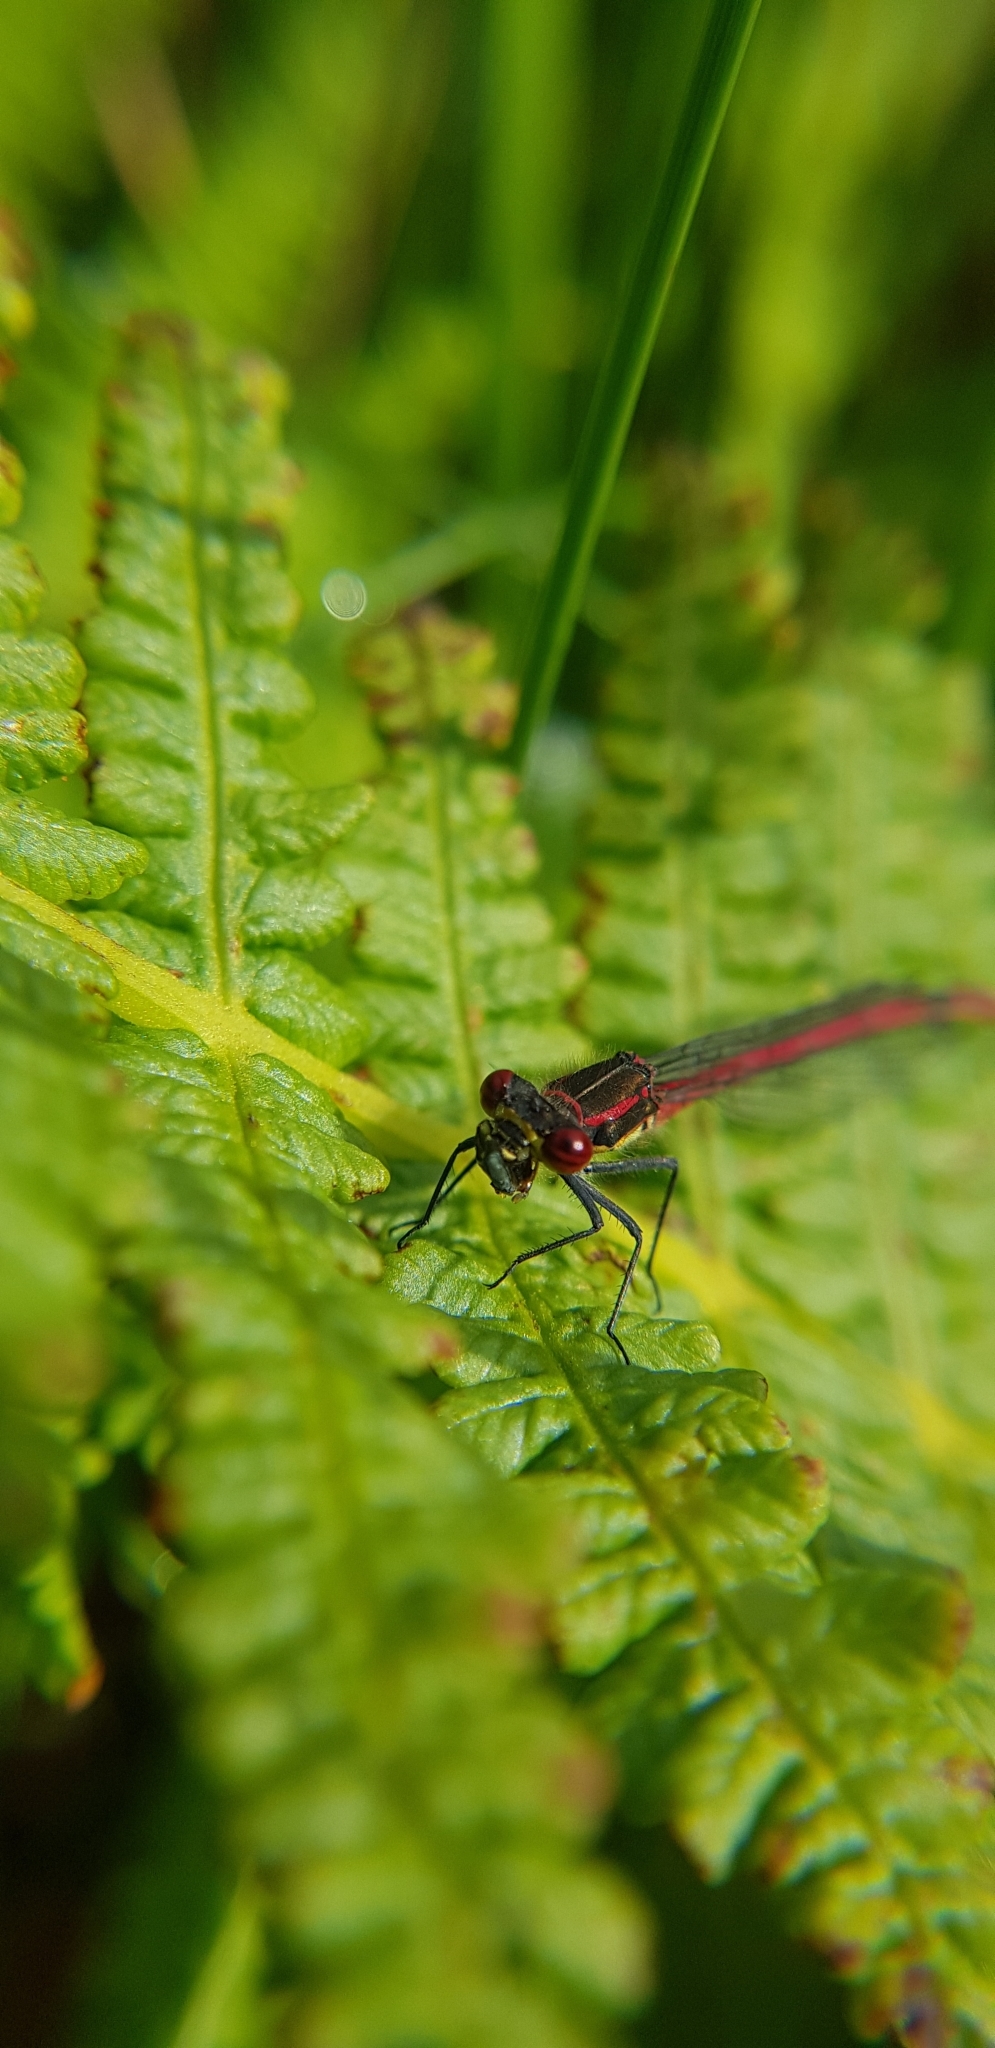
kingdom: Animalia
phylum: Arthropoda
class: Insecta
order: Odonata
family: Coenagrionidae
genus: Pyrrhosoma
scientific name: Pyrrhosoma nymphula
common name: Large red damsel
